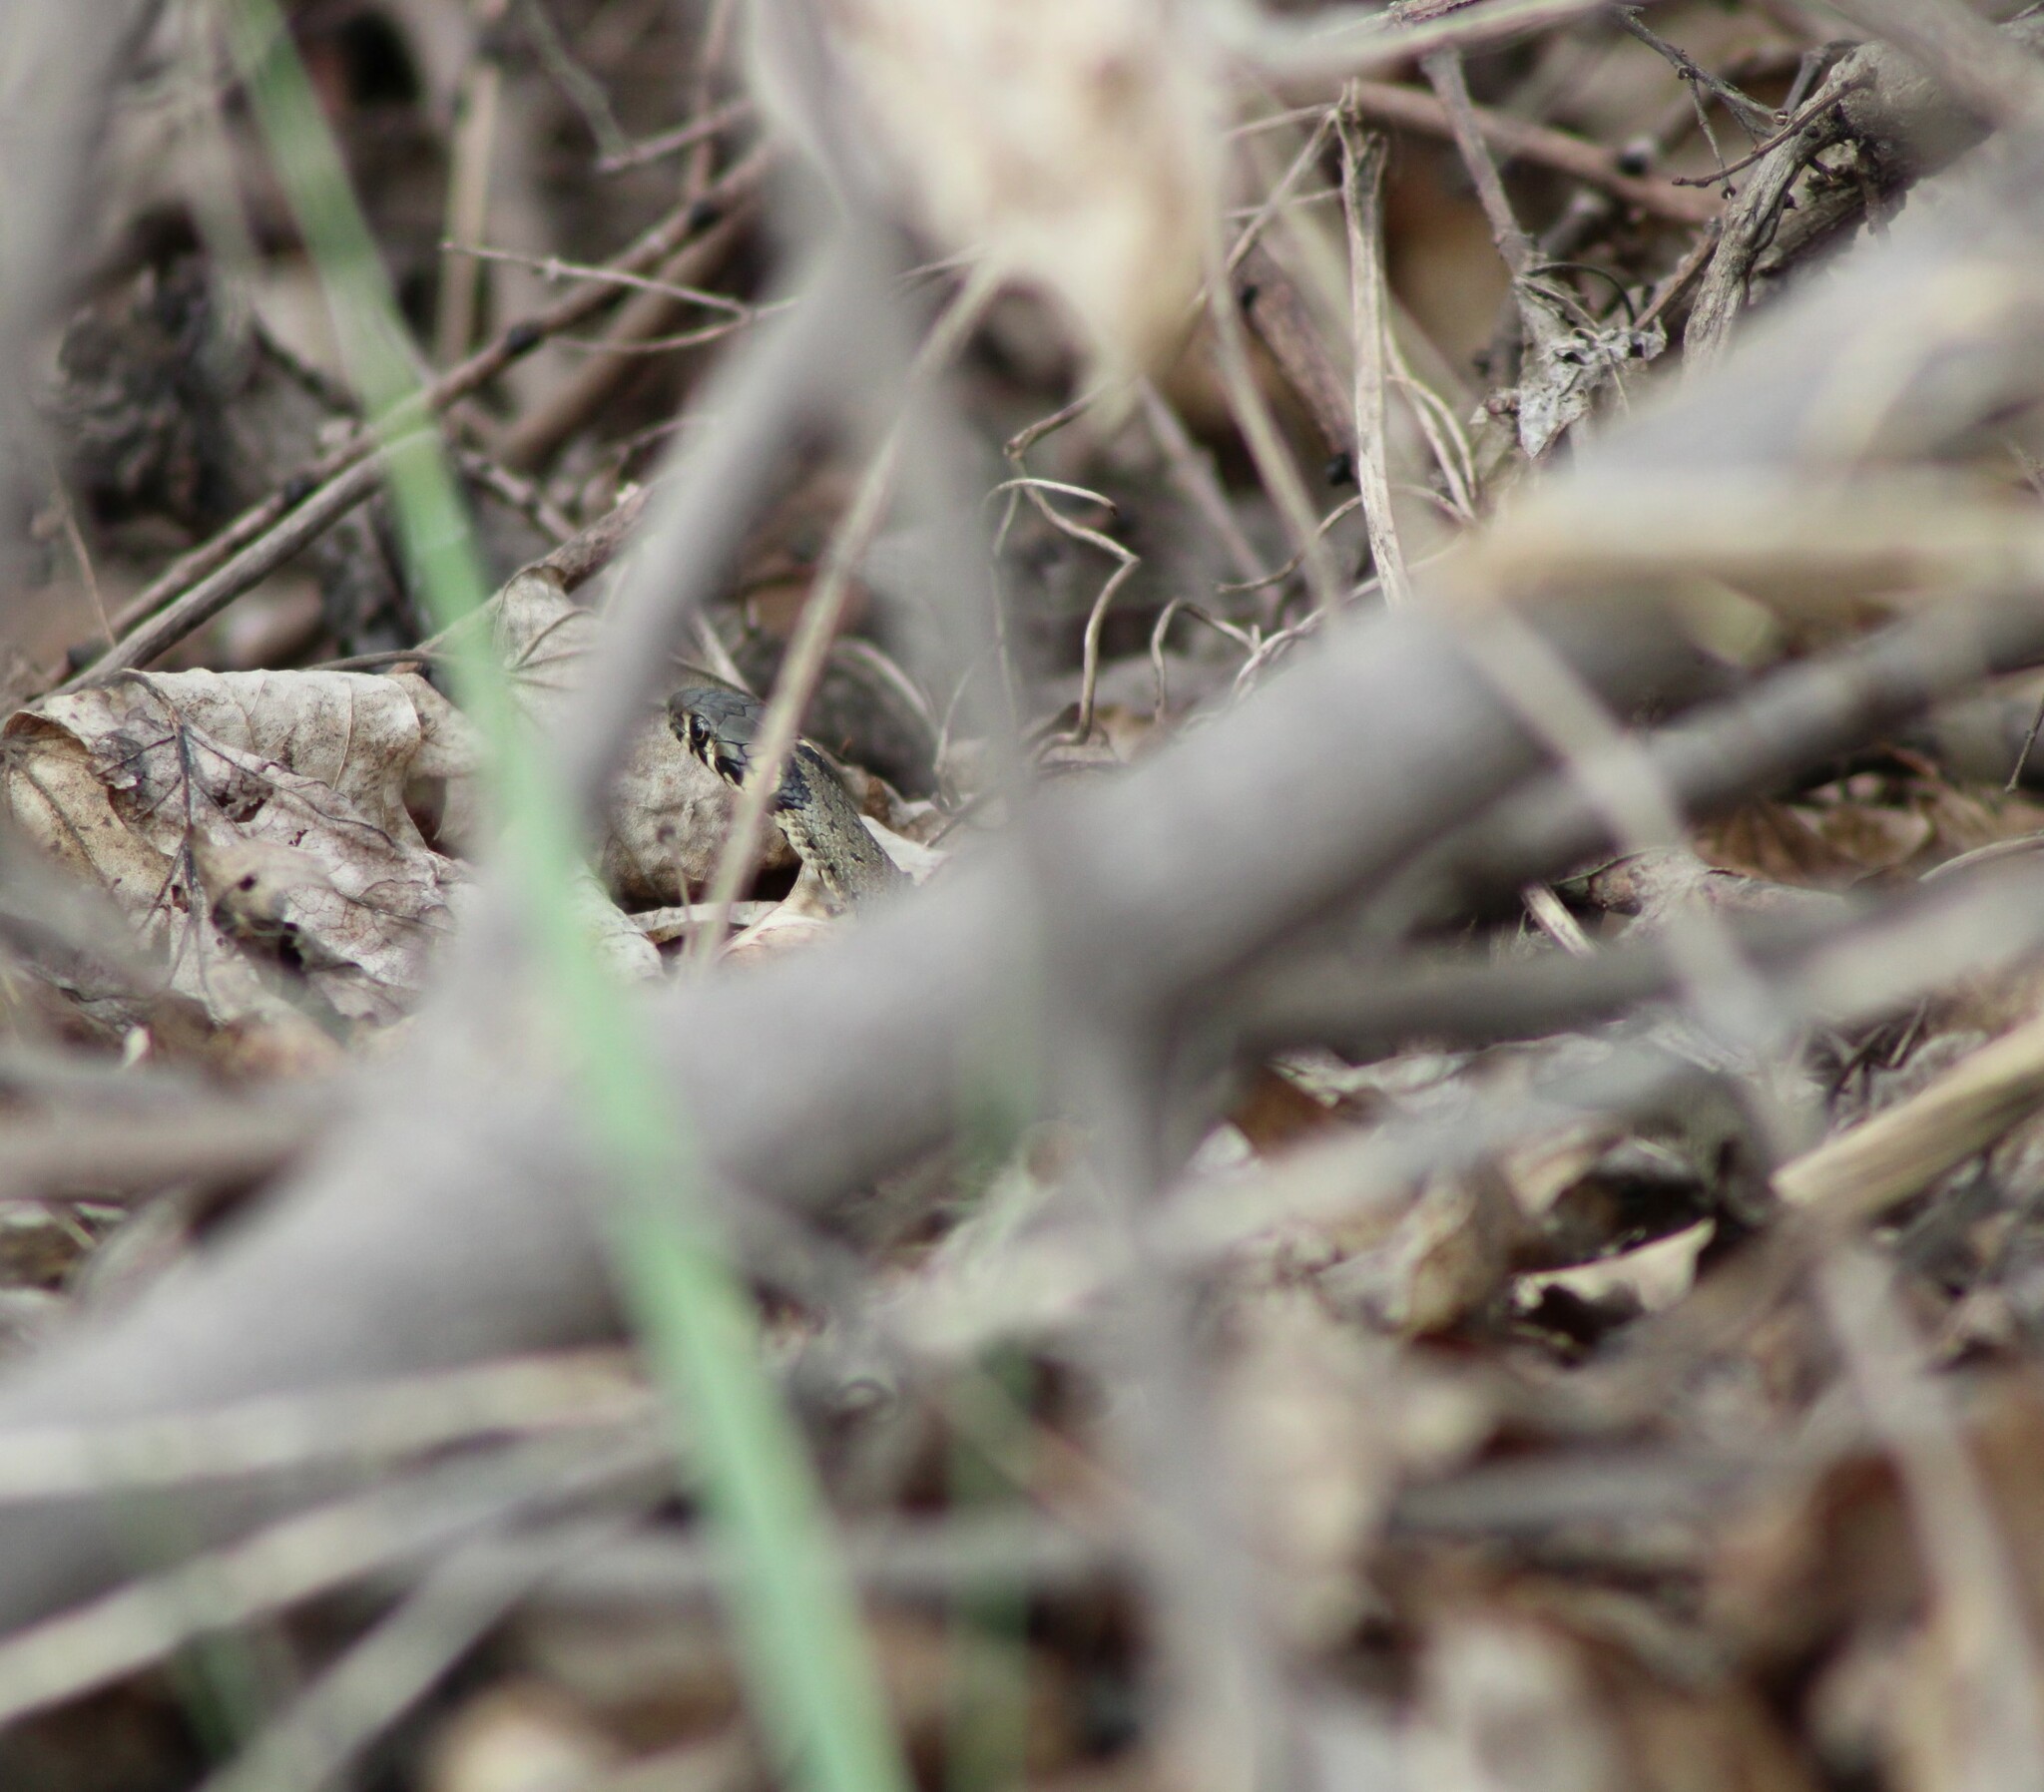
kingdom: Animalia
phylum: Chordata
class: Squamata
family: Colubridae
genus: Natrix
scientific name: Natrix natrix
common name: Grass snake
